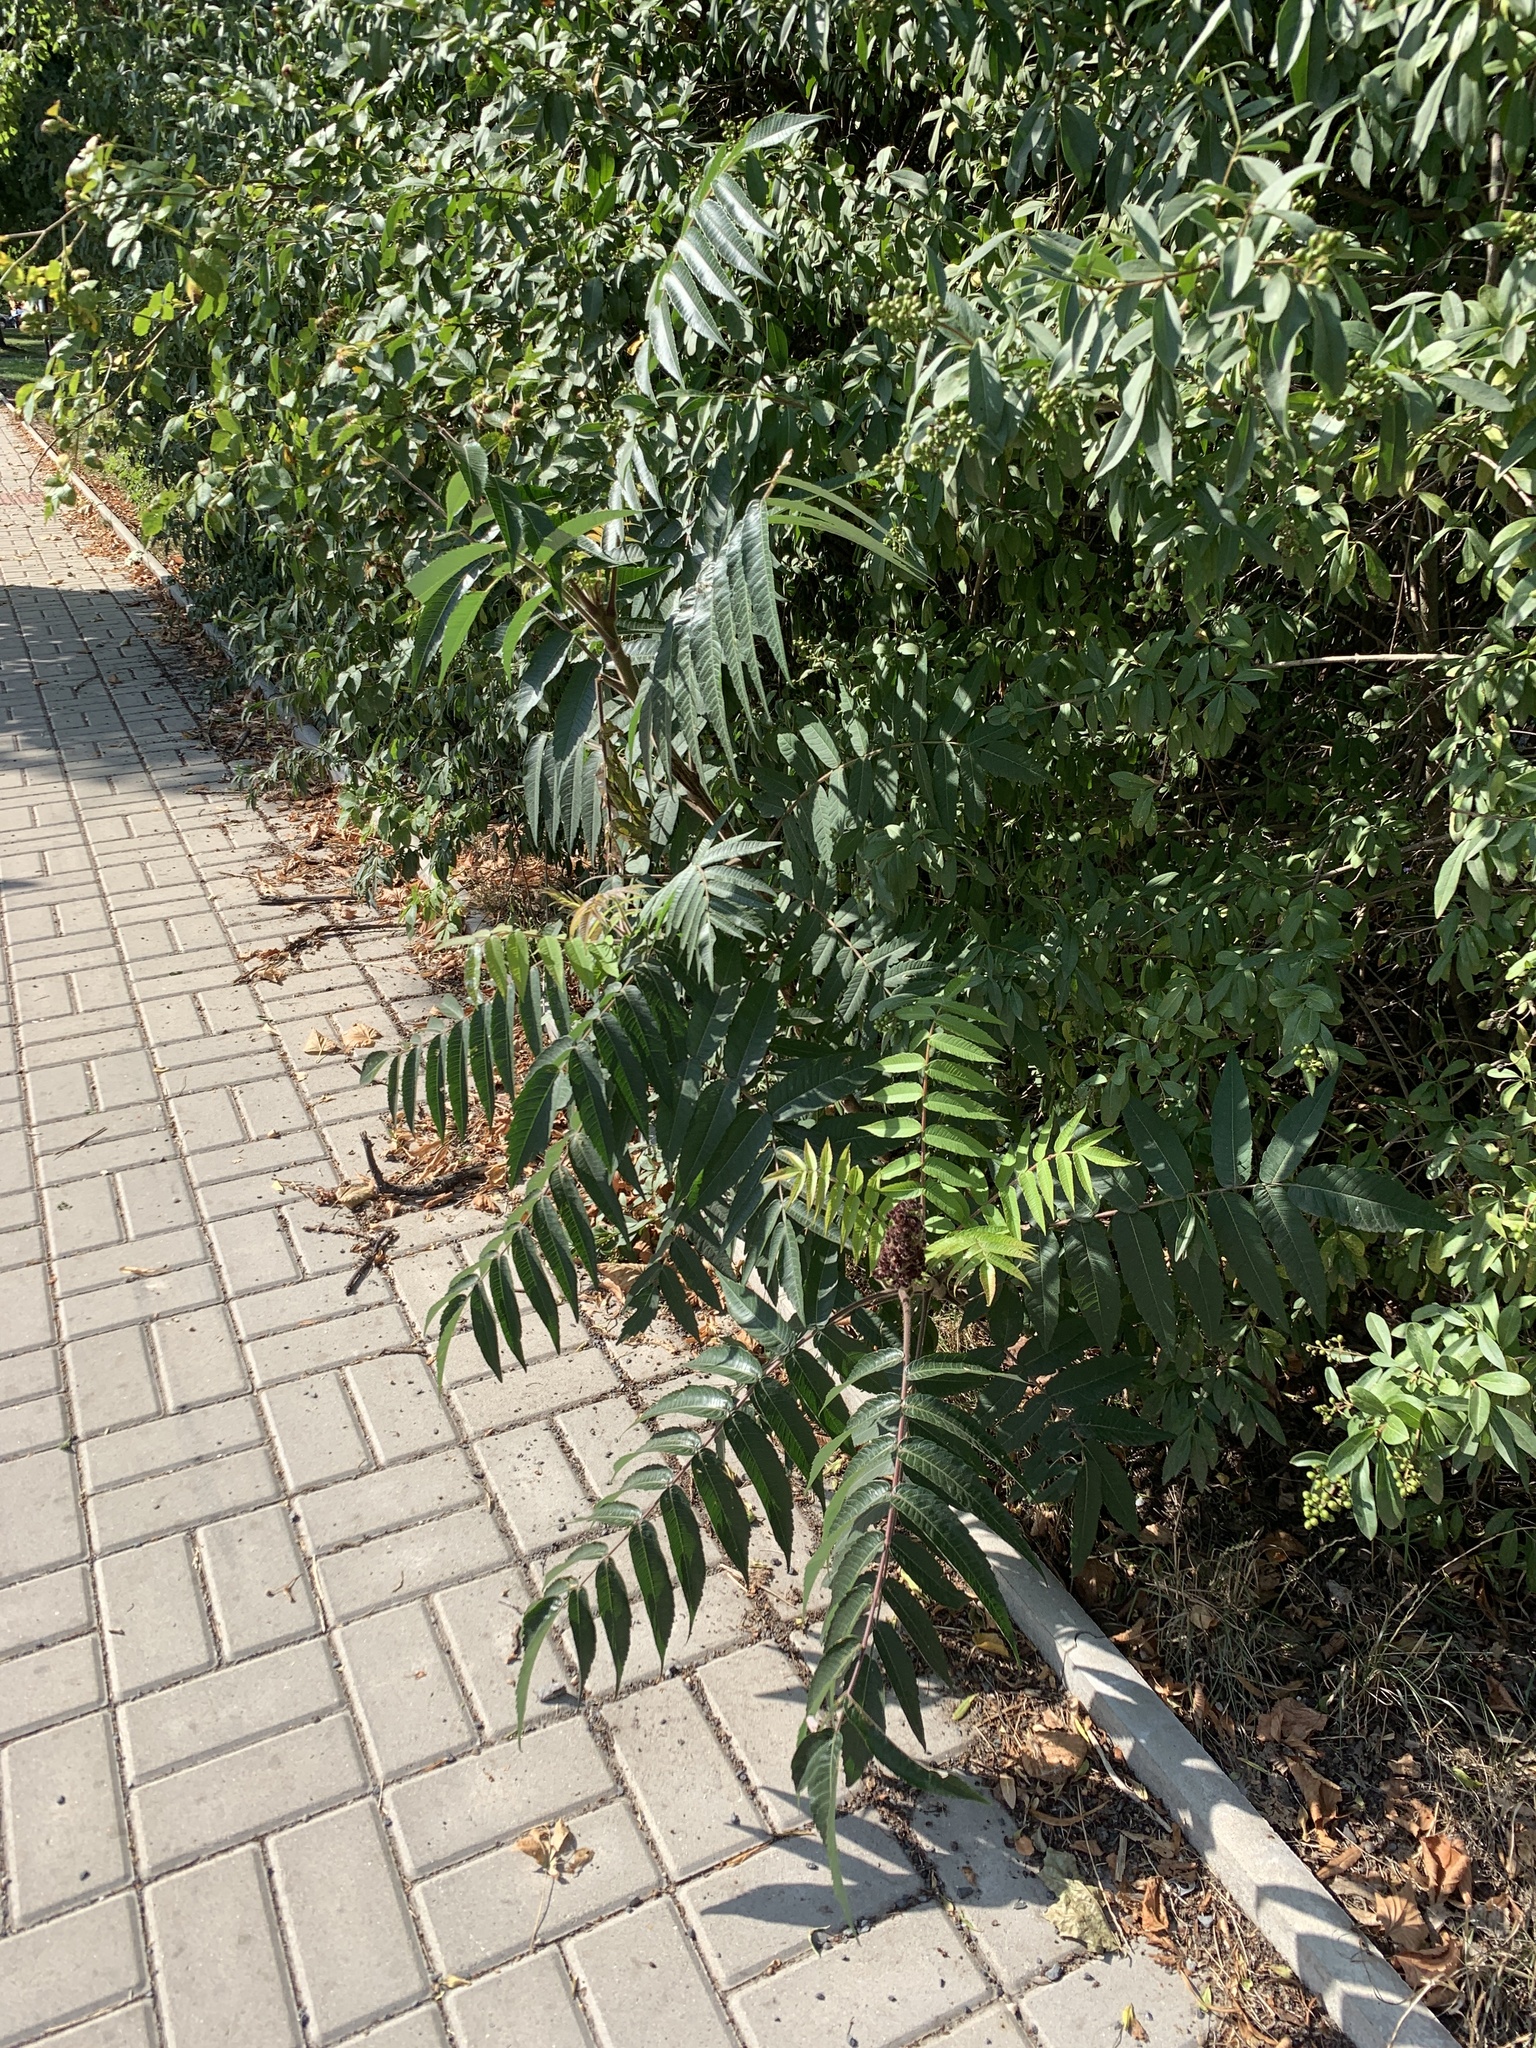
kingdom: Plantae
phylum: Tracheophyta
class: Magnoliopsida
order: Sapindales
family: Anacardiaceae
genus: Rhus
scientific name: Rhus typhina
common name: Staghorn sumac
